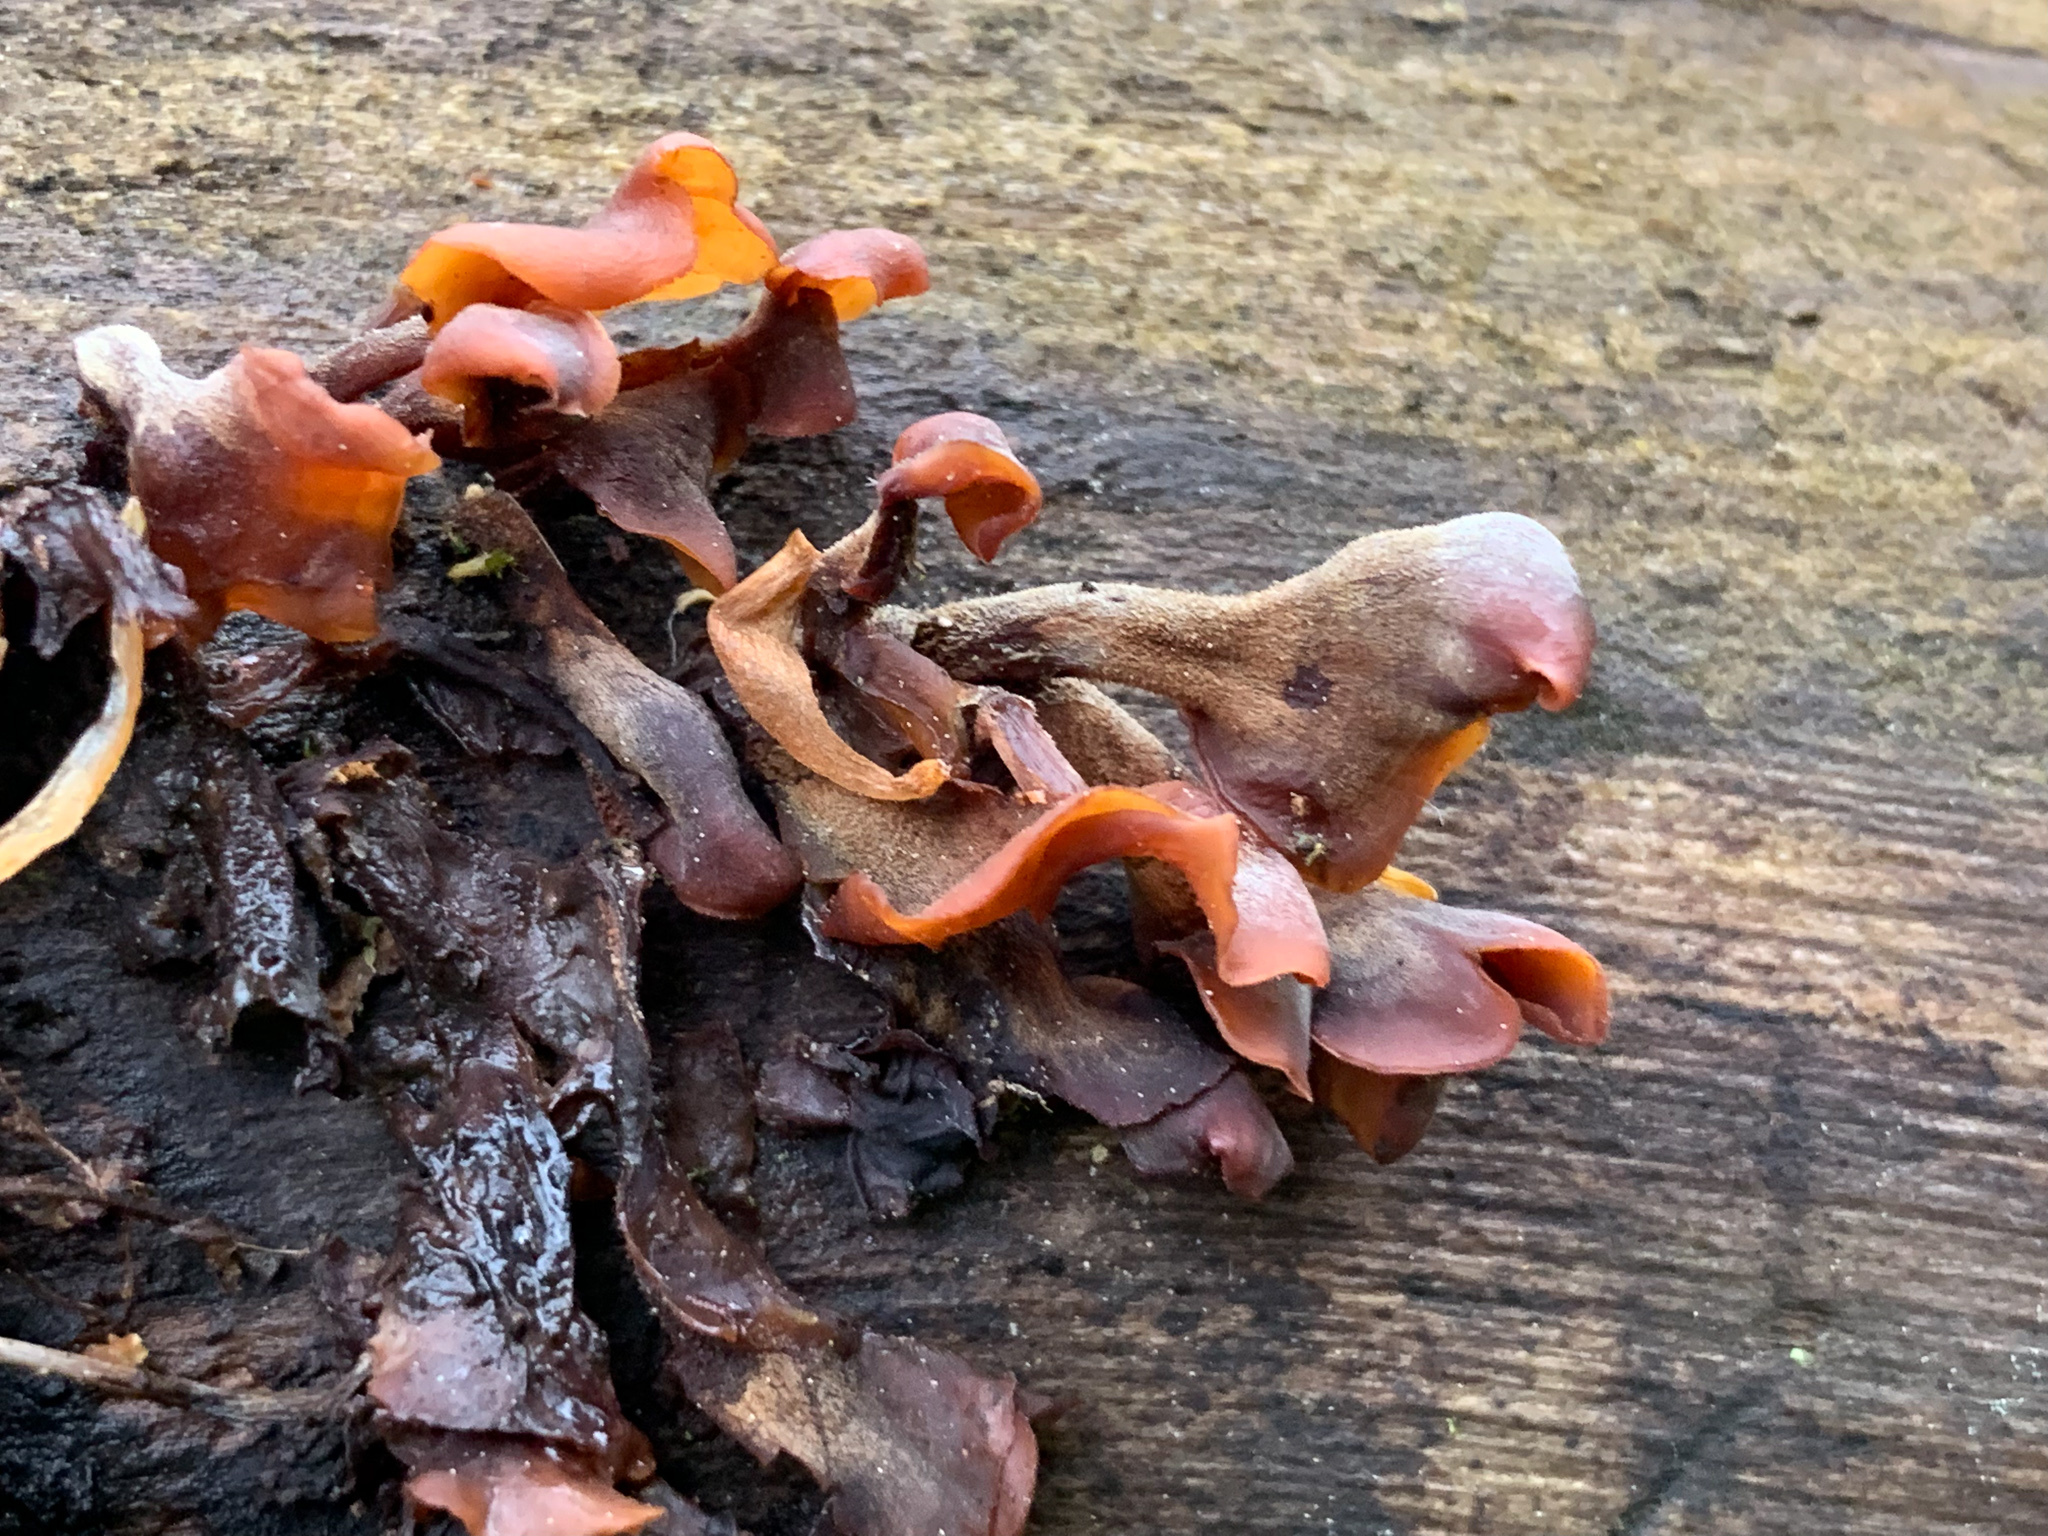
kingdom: Fungi
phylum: Basidiomycota
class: Dacrymycetes
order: Dacrymycetales
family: Dacrymycetaceae
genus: Dacryopinax
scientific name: Dacryopinax elegans
